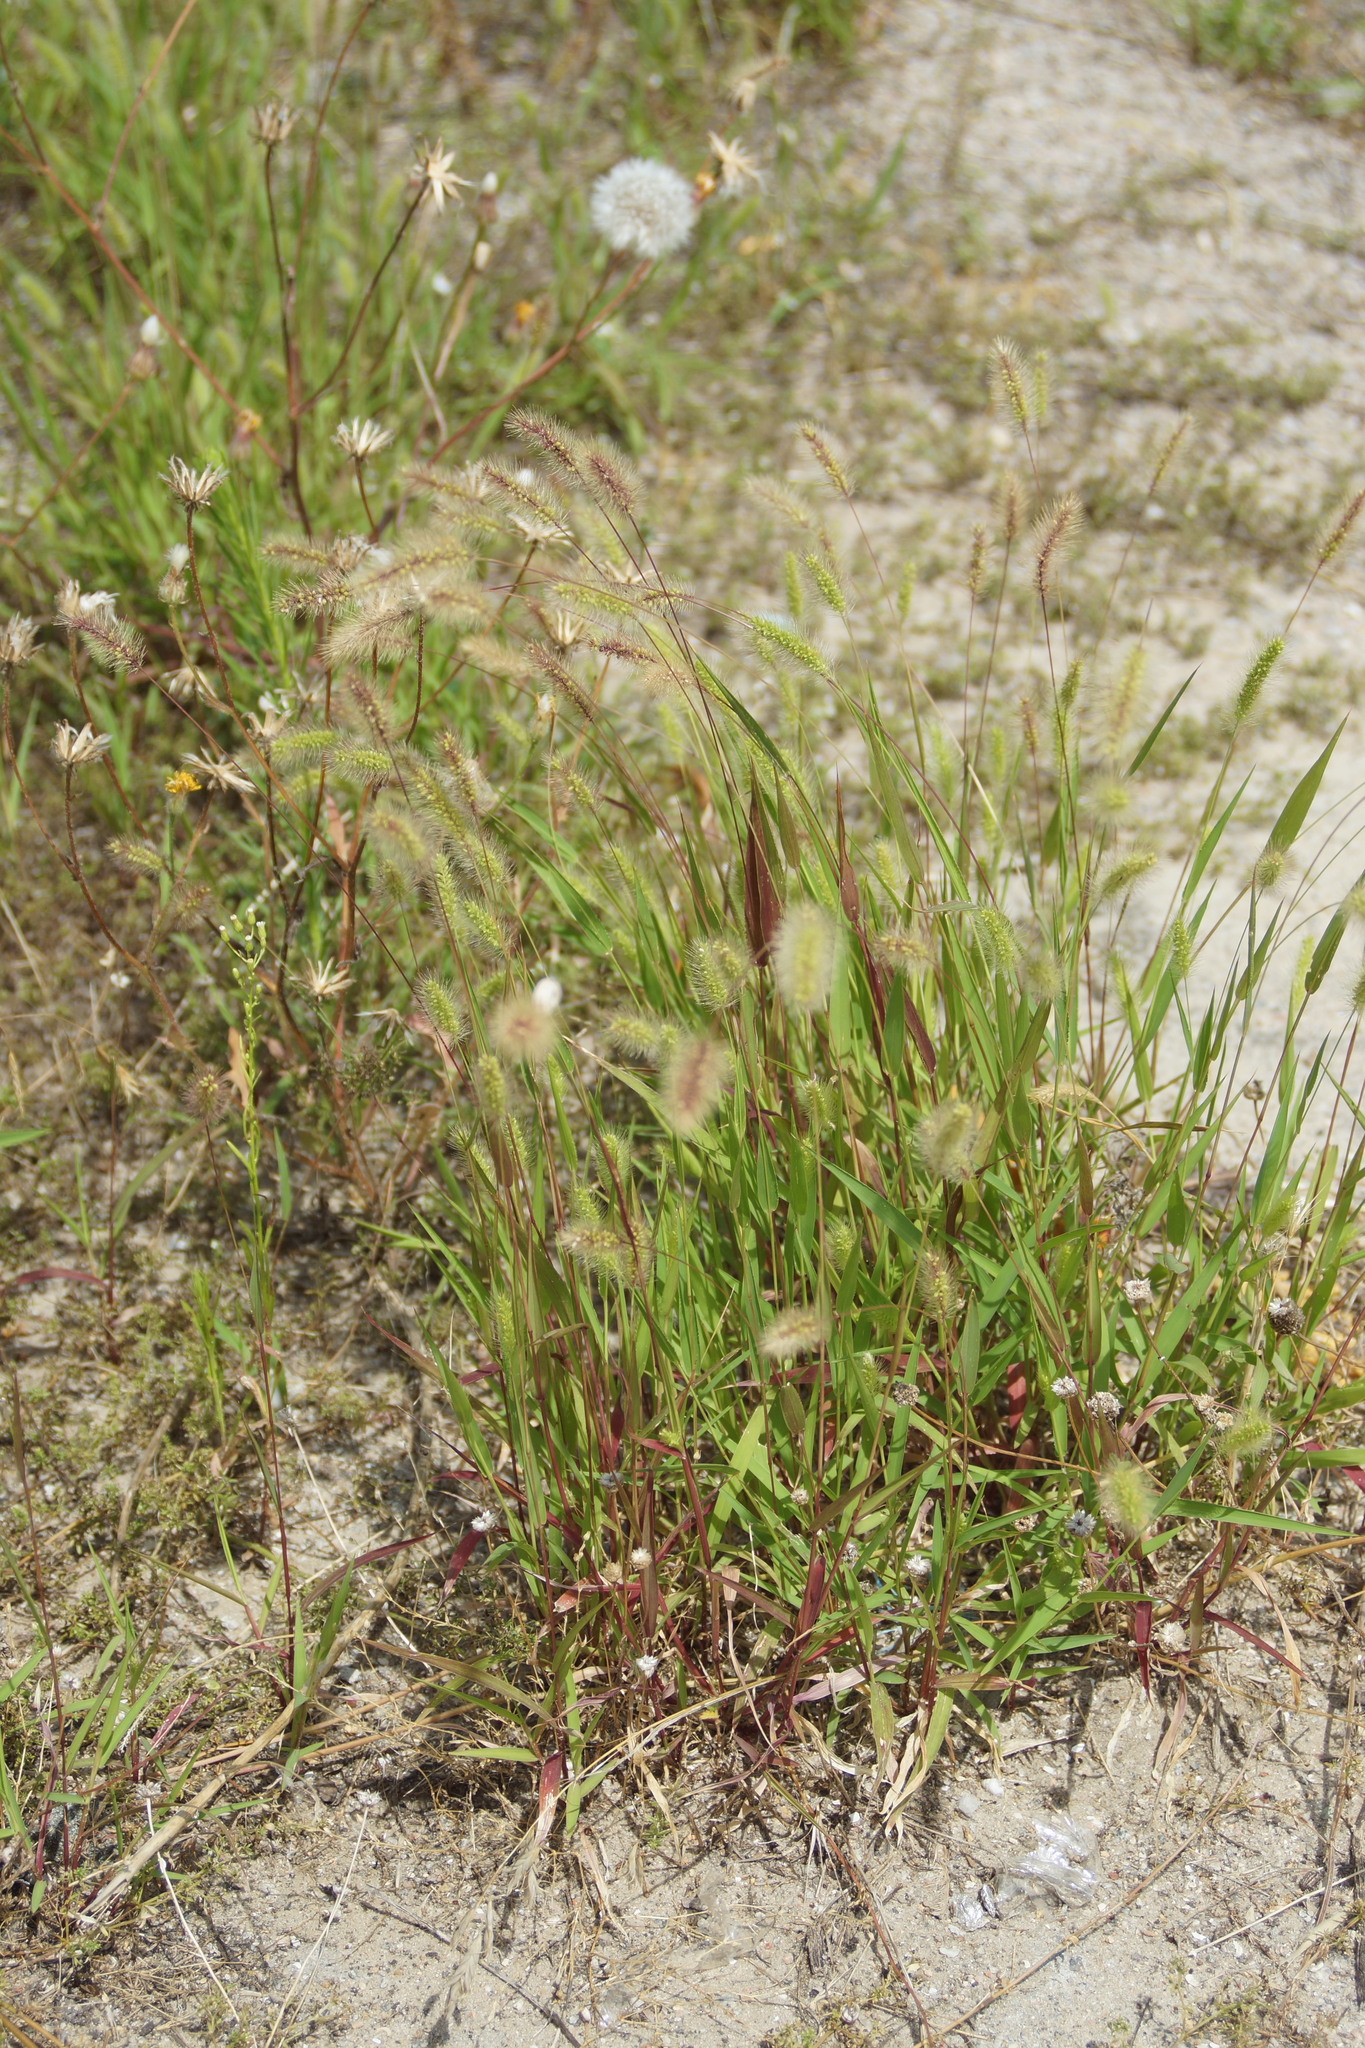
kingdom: Plantae
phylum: Tracheophyta
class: Liliopsida
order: Poales
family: Poaceae
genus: Setaria
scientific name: Setaria viridis
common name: Green bristlegrass
